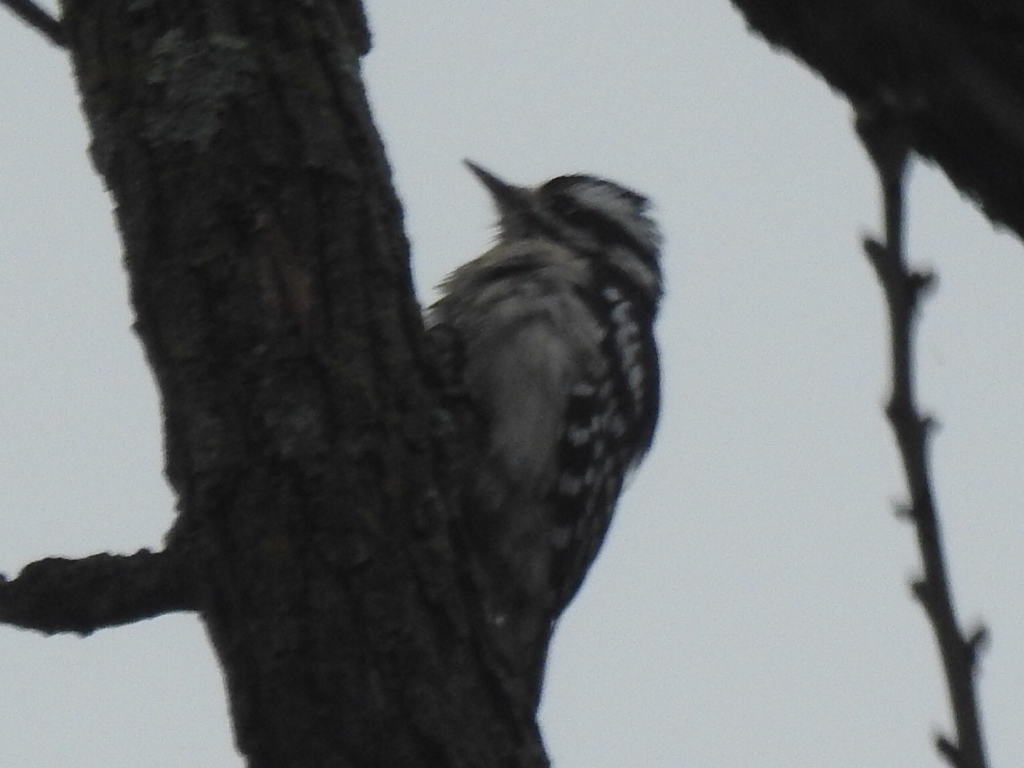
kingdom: Animalia
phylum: Chordata
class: Aves
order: Piciformes
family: Picidae
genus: Dryobates
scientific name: Dryobates pubescens
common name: Downy woodpecker
